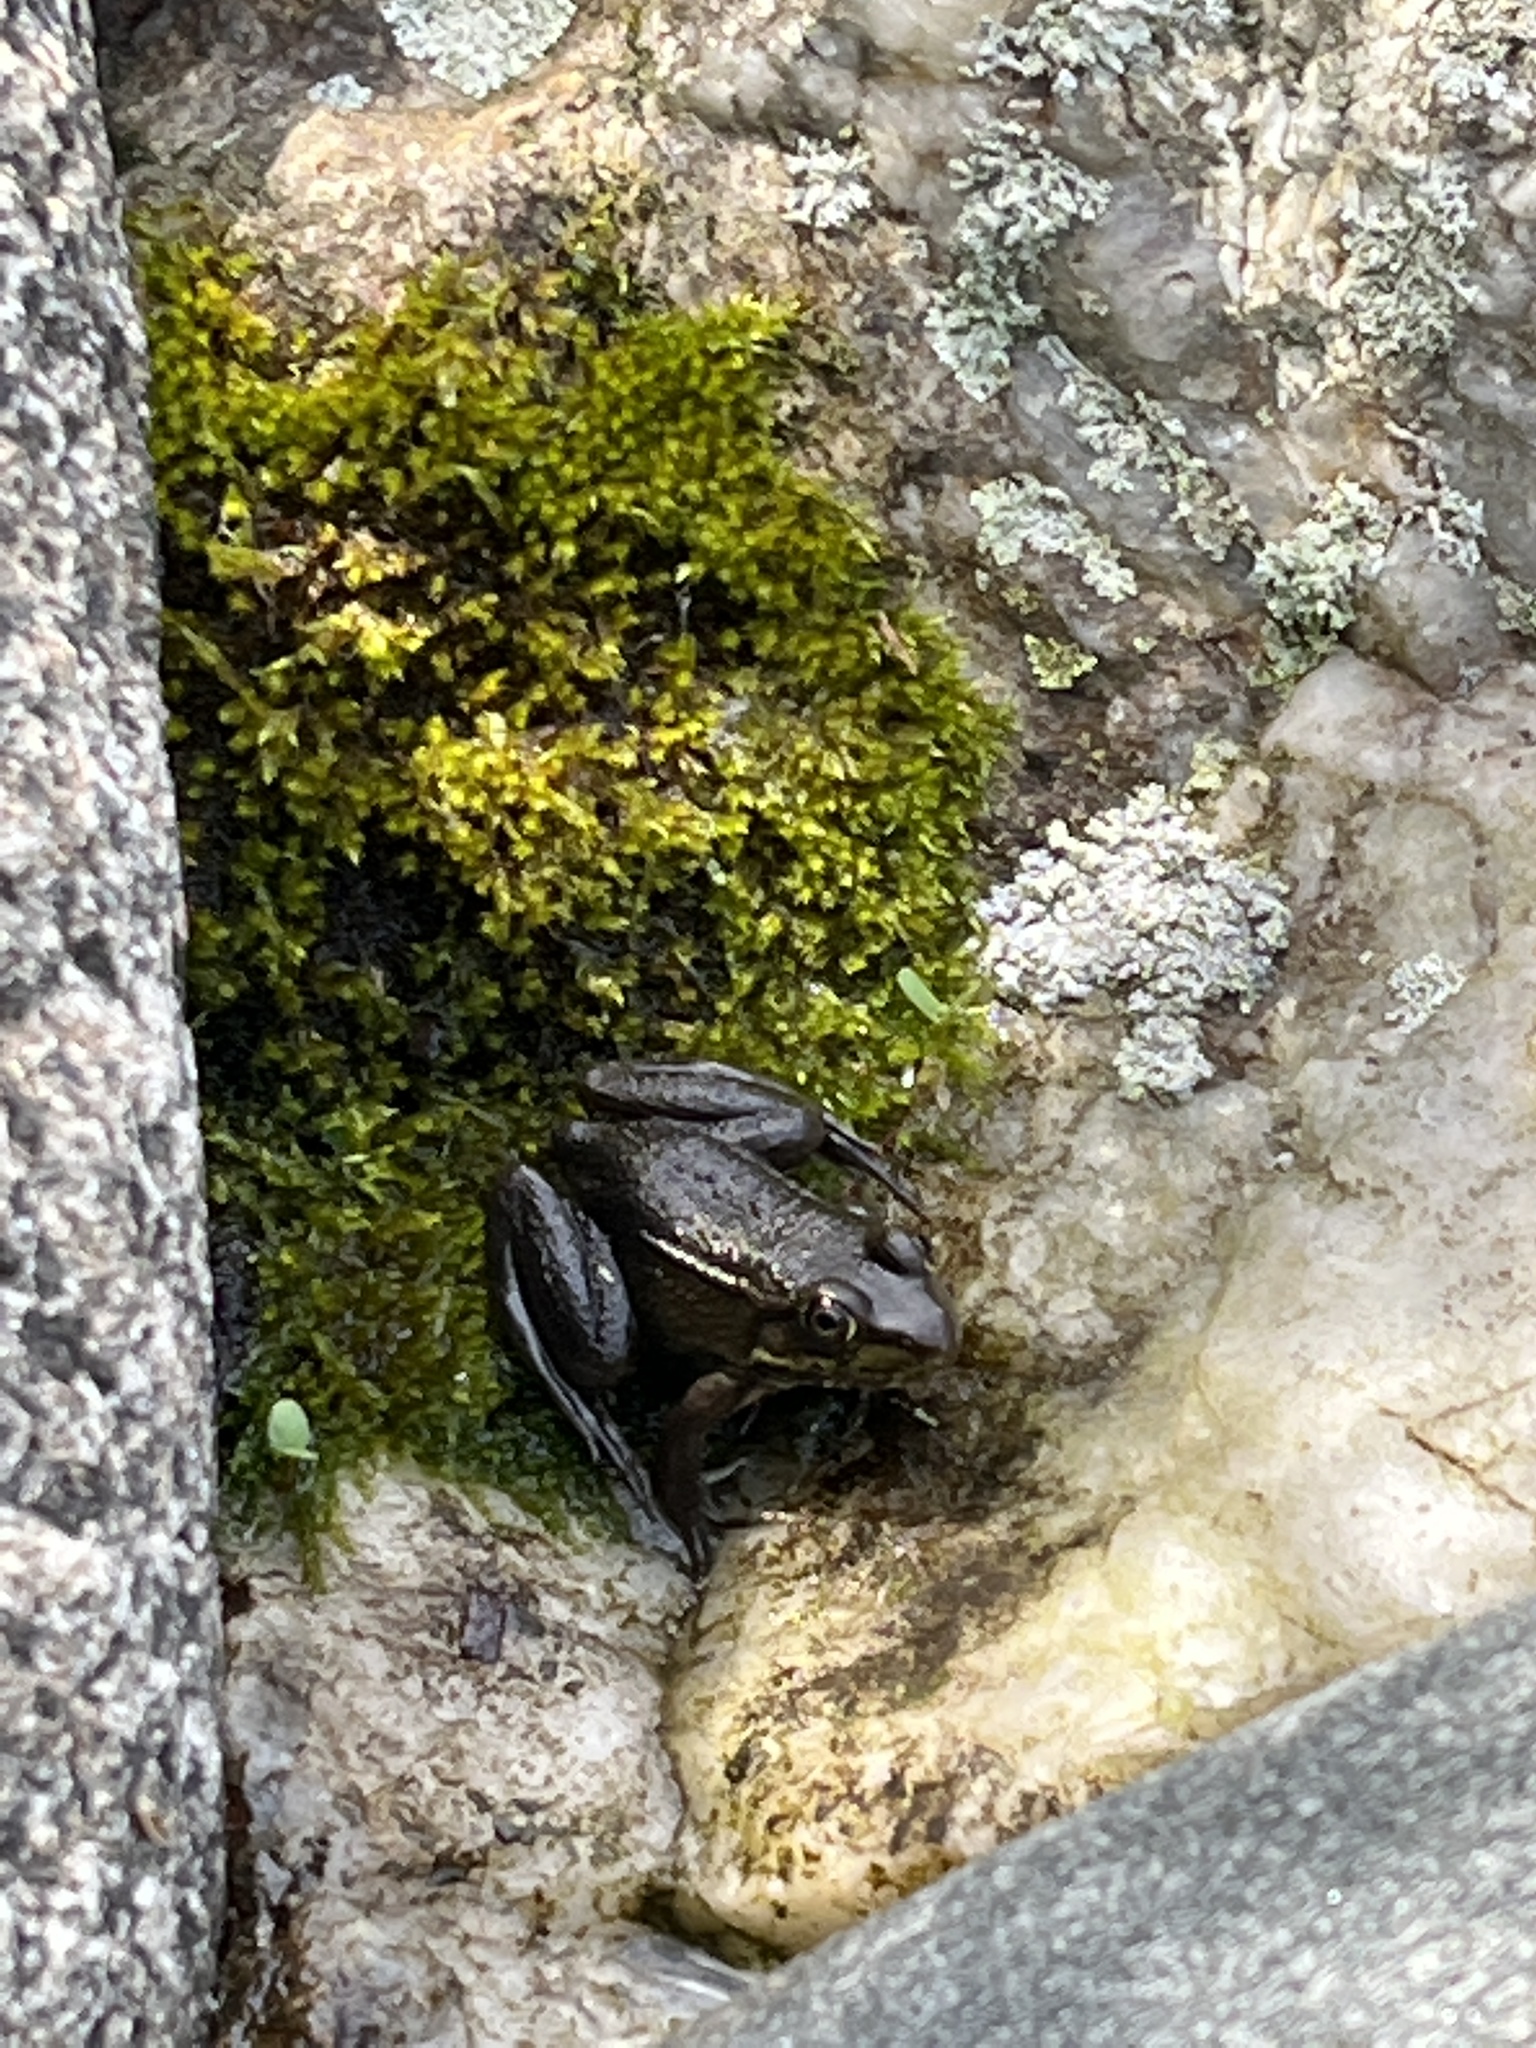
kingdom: Animalia
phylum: Chordata
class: Amphibia
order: Anura
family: Ranidae
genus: Lithobates
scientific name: Lithobates clamitans
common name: Green frog
